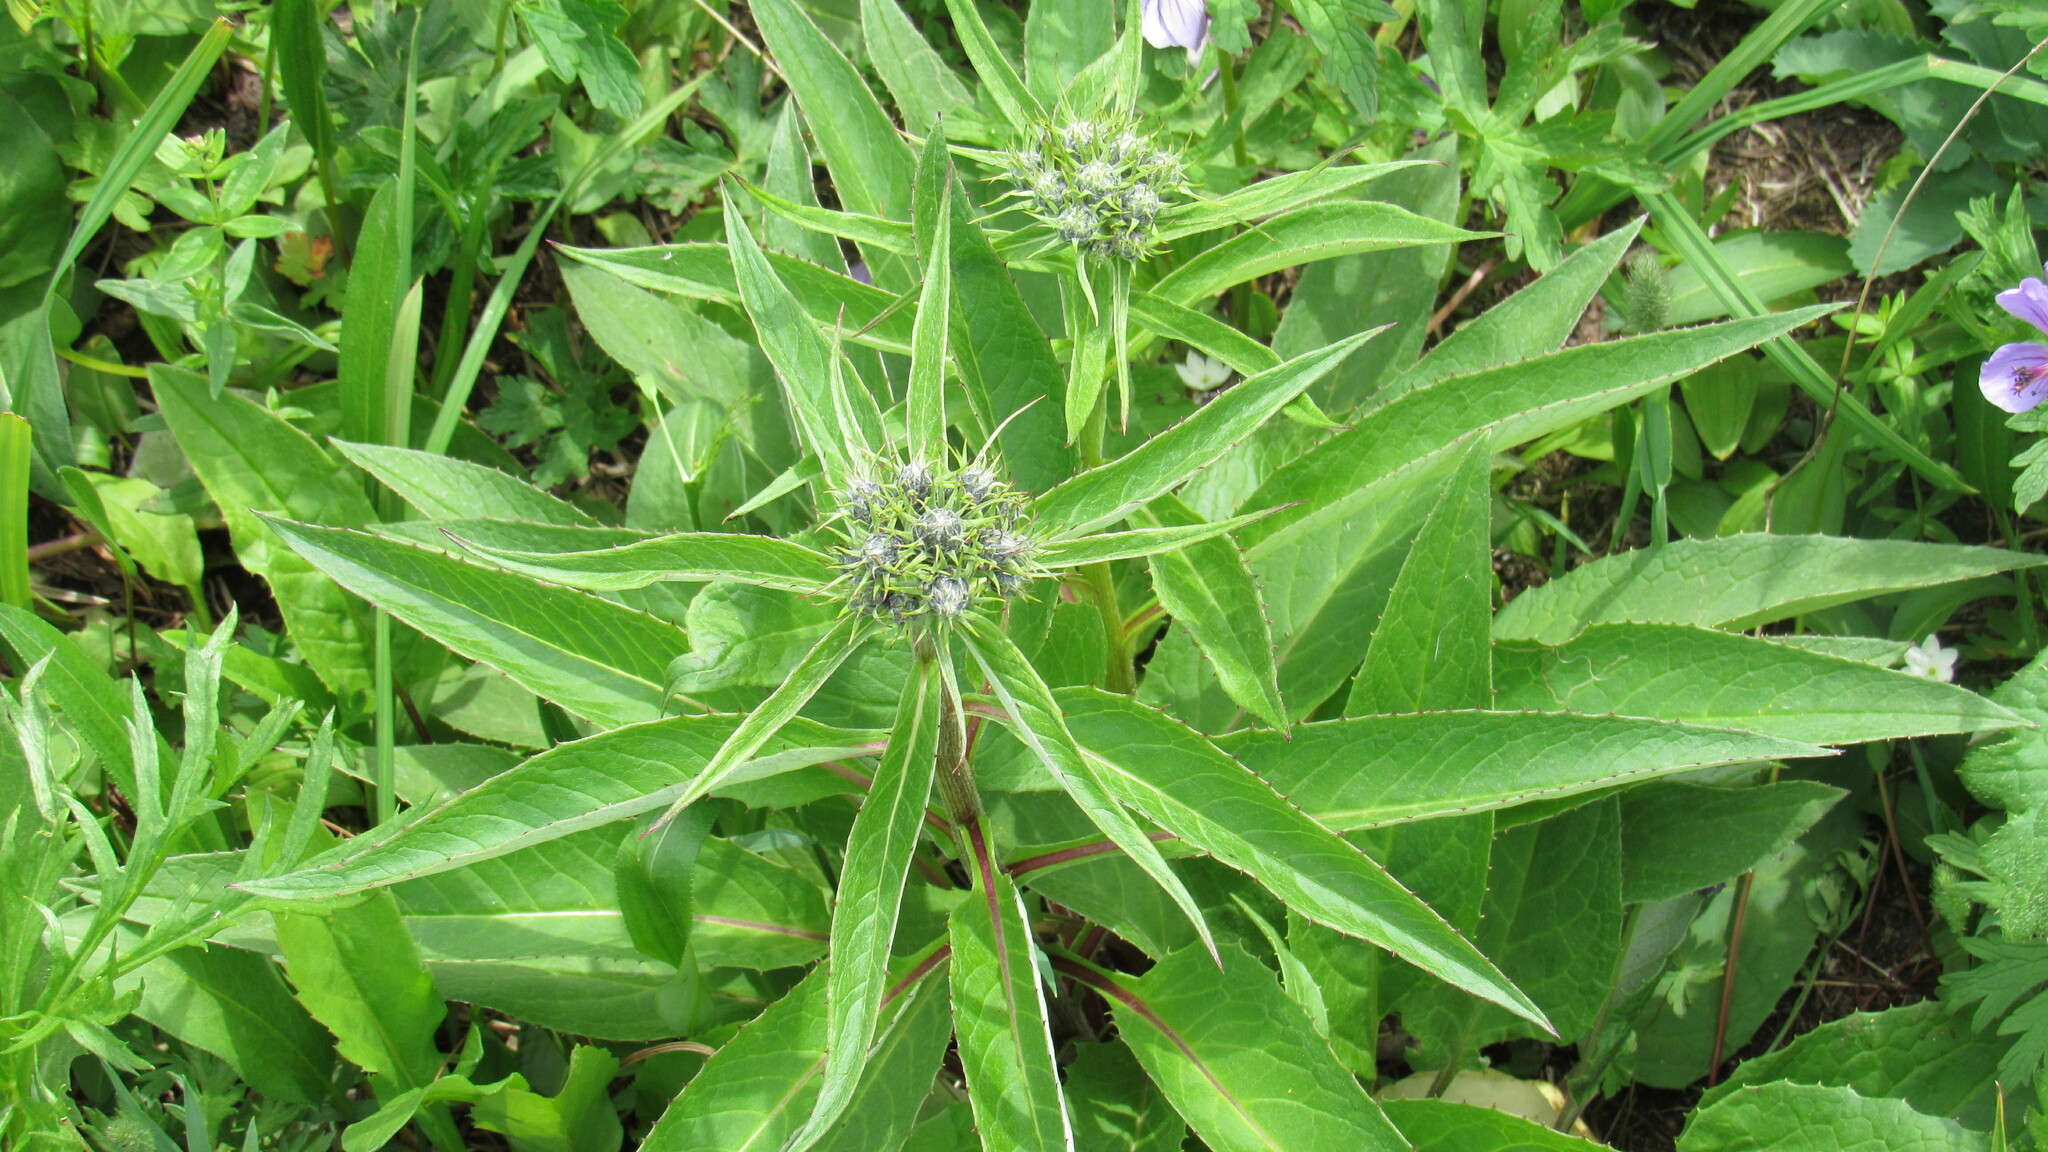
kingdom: Plantae
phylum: Tracheophyta
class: Magnoliopsida
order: Asterales
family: Asteraceae
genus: Saussurea
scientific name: Saussurea pseudotilesii
